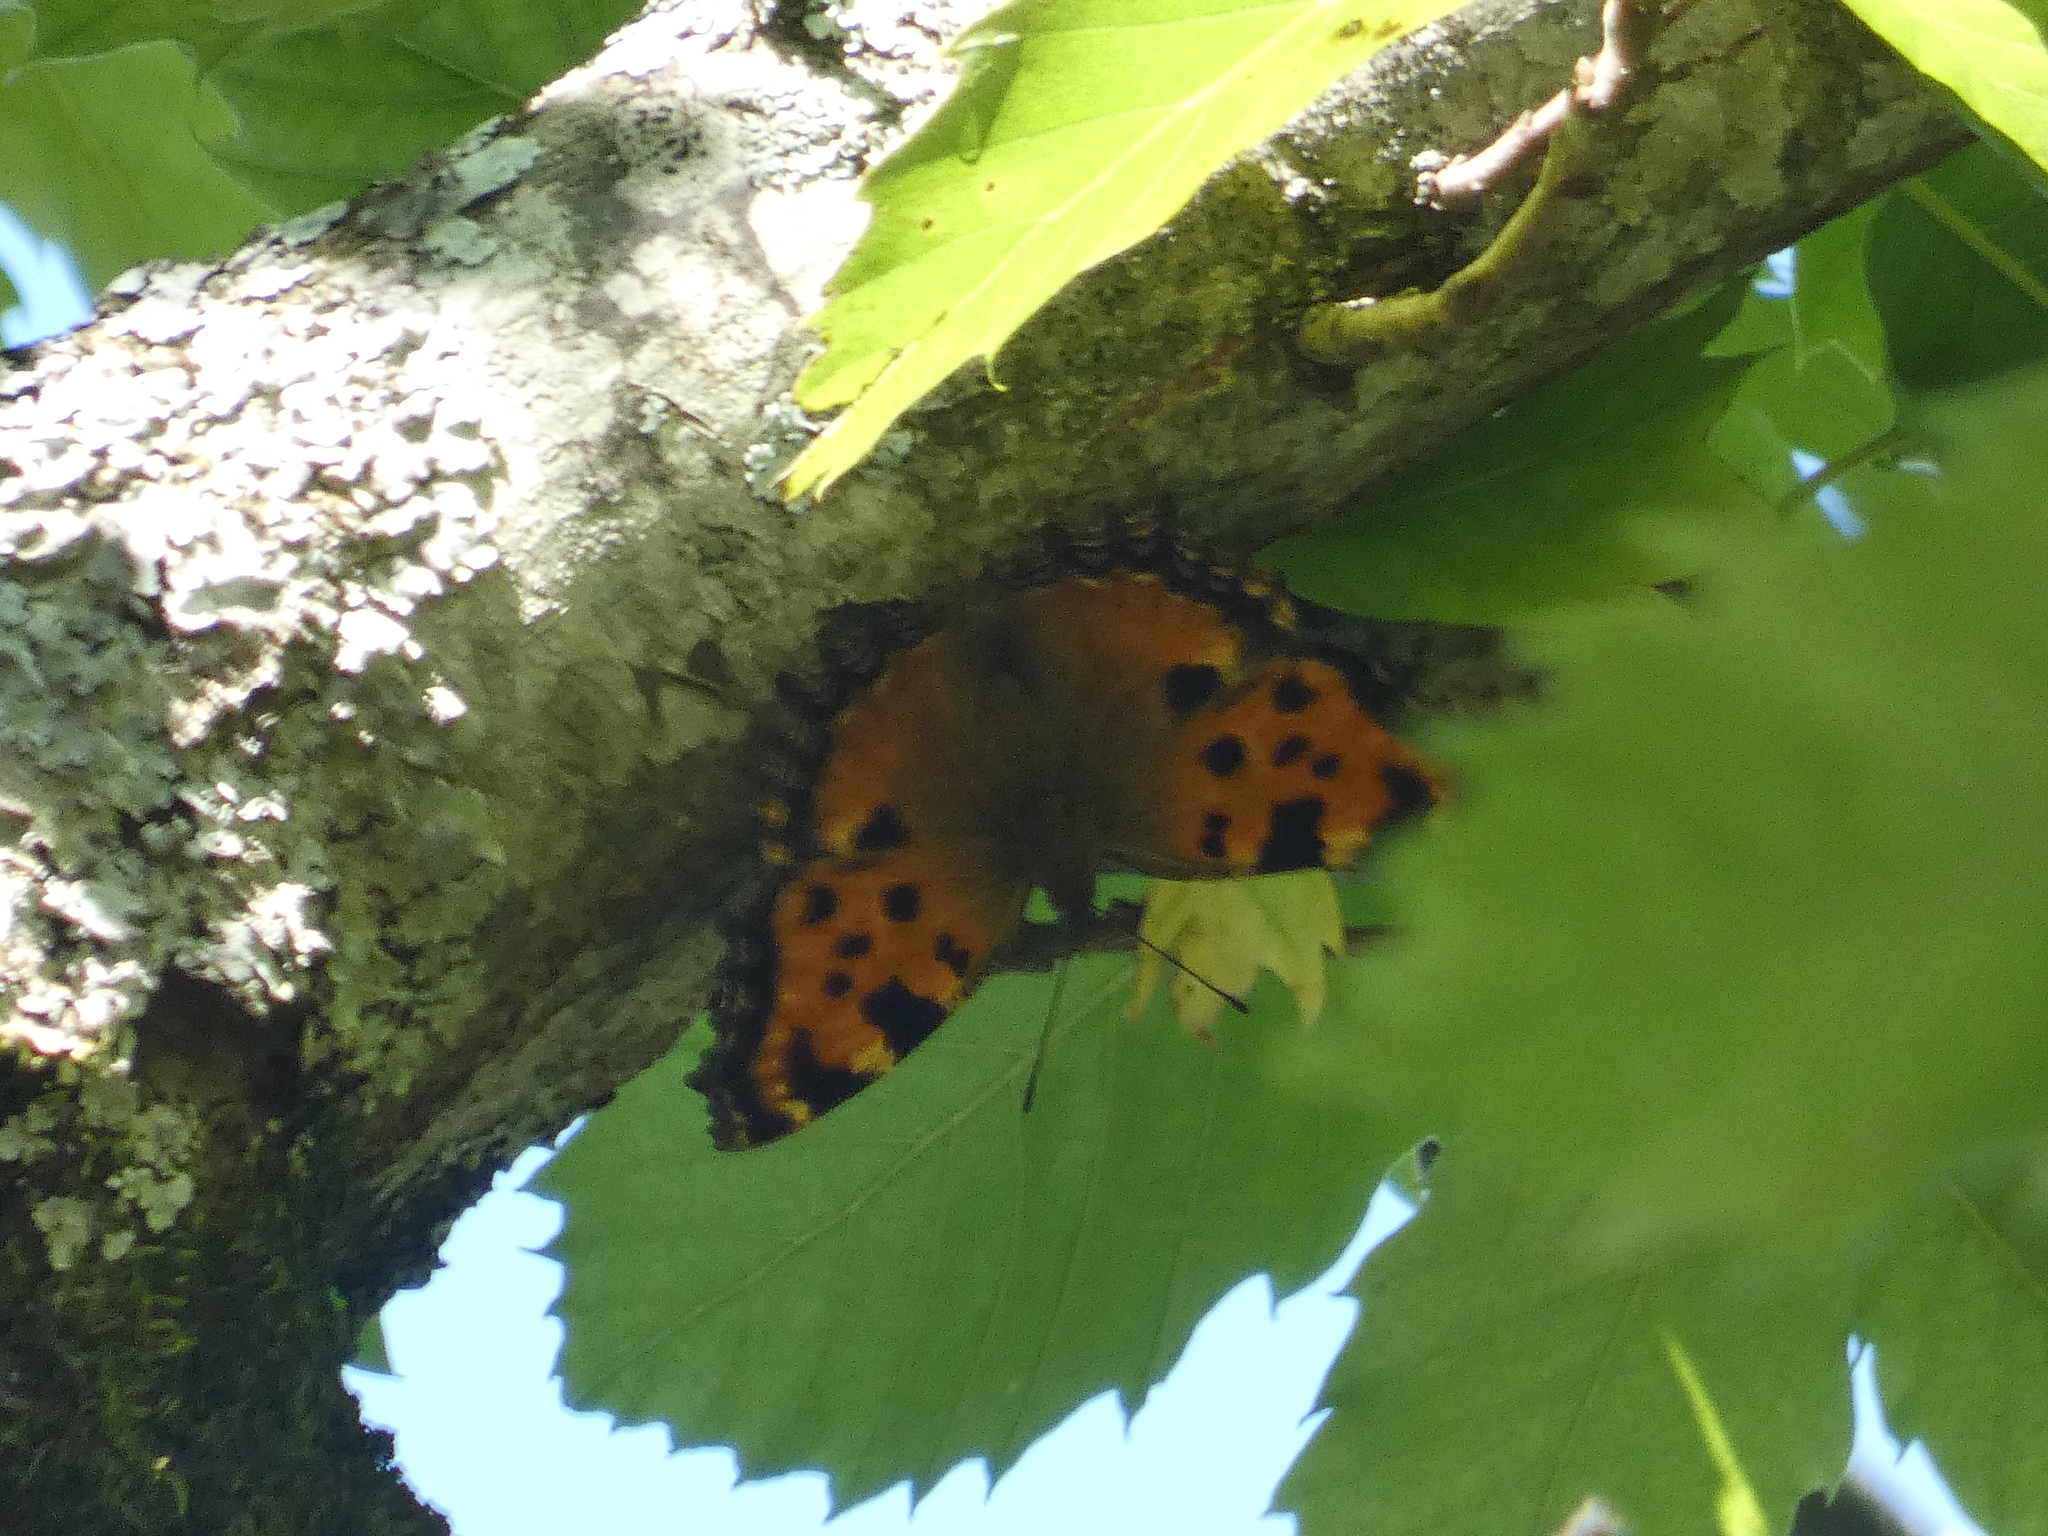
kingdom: Animalia
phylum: Arthropoda
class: Insecta
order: Lepidoptera
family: Nymphalidae
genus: Nymphalis
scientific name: Nymphalis polychloros
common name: Large tortoiseshell
